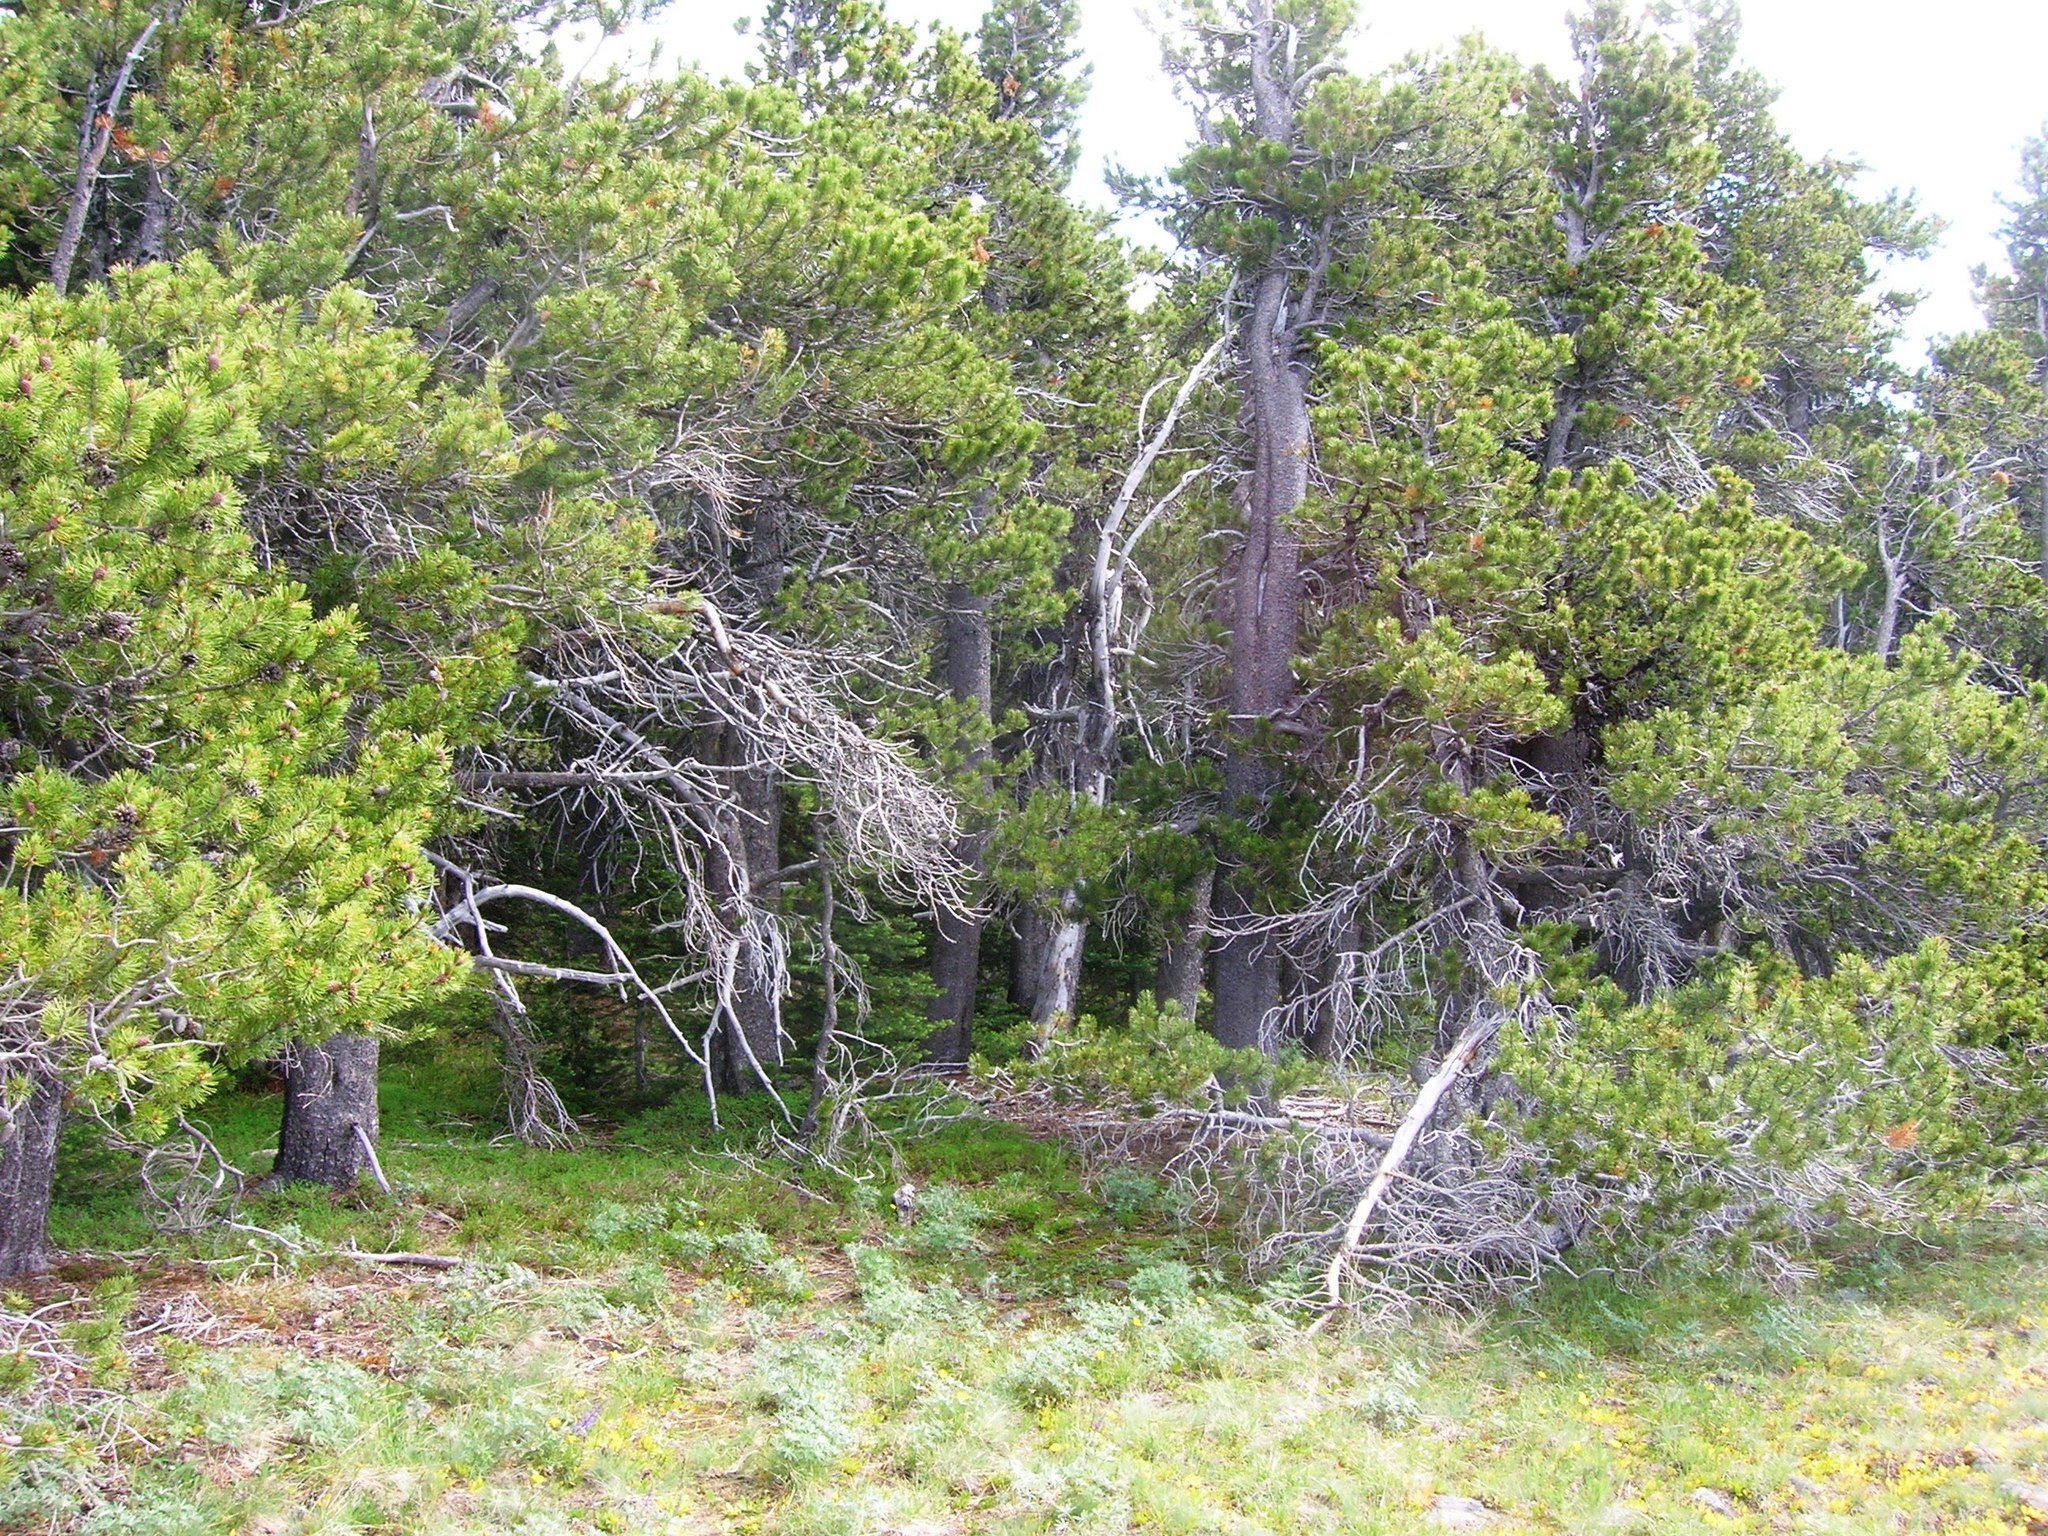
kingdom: Plantae
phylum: Tracheophyta
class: Pinopsida
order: Pinales
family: Pinaceae
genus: Pinus
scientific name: Pinus albicaulis
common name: Whitebark pine
